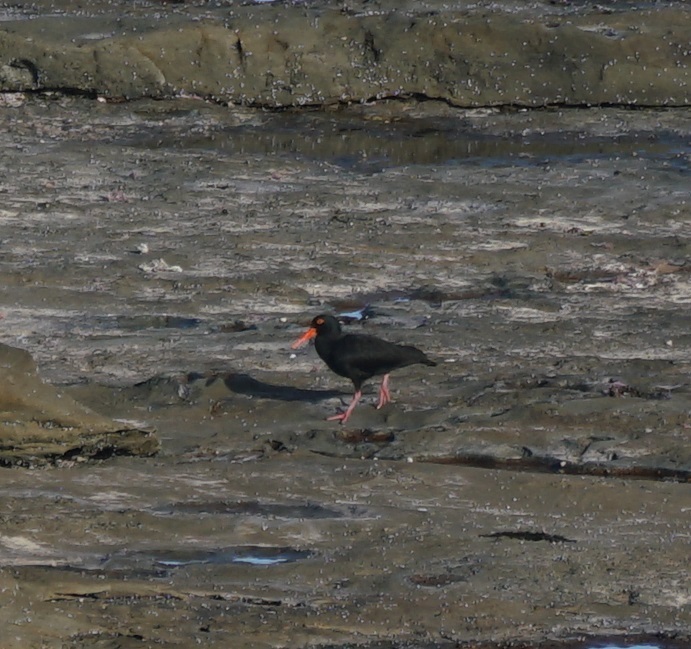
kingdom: Animalia
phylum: Chordata
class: Aves
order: Charadriiformes
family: Haematopodidae
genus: Haematopus
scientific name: Haematopus fuliginosus
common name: Sooty oystercatcher
